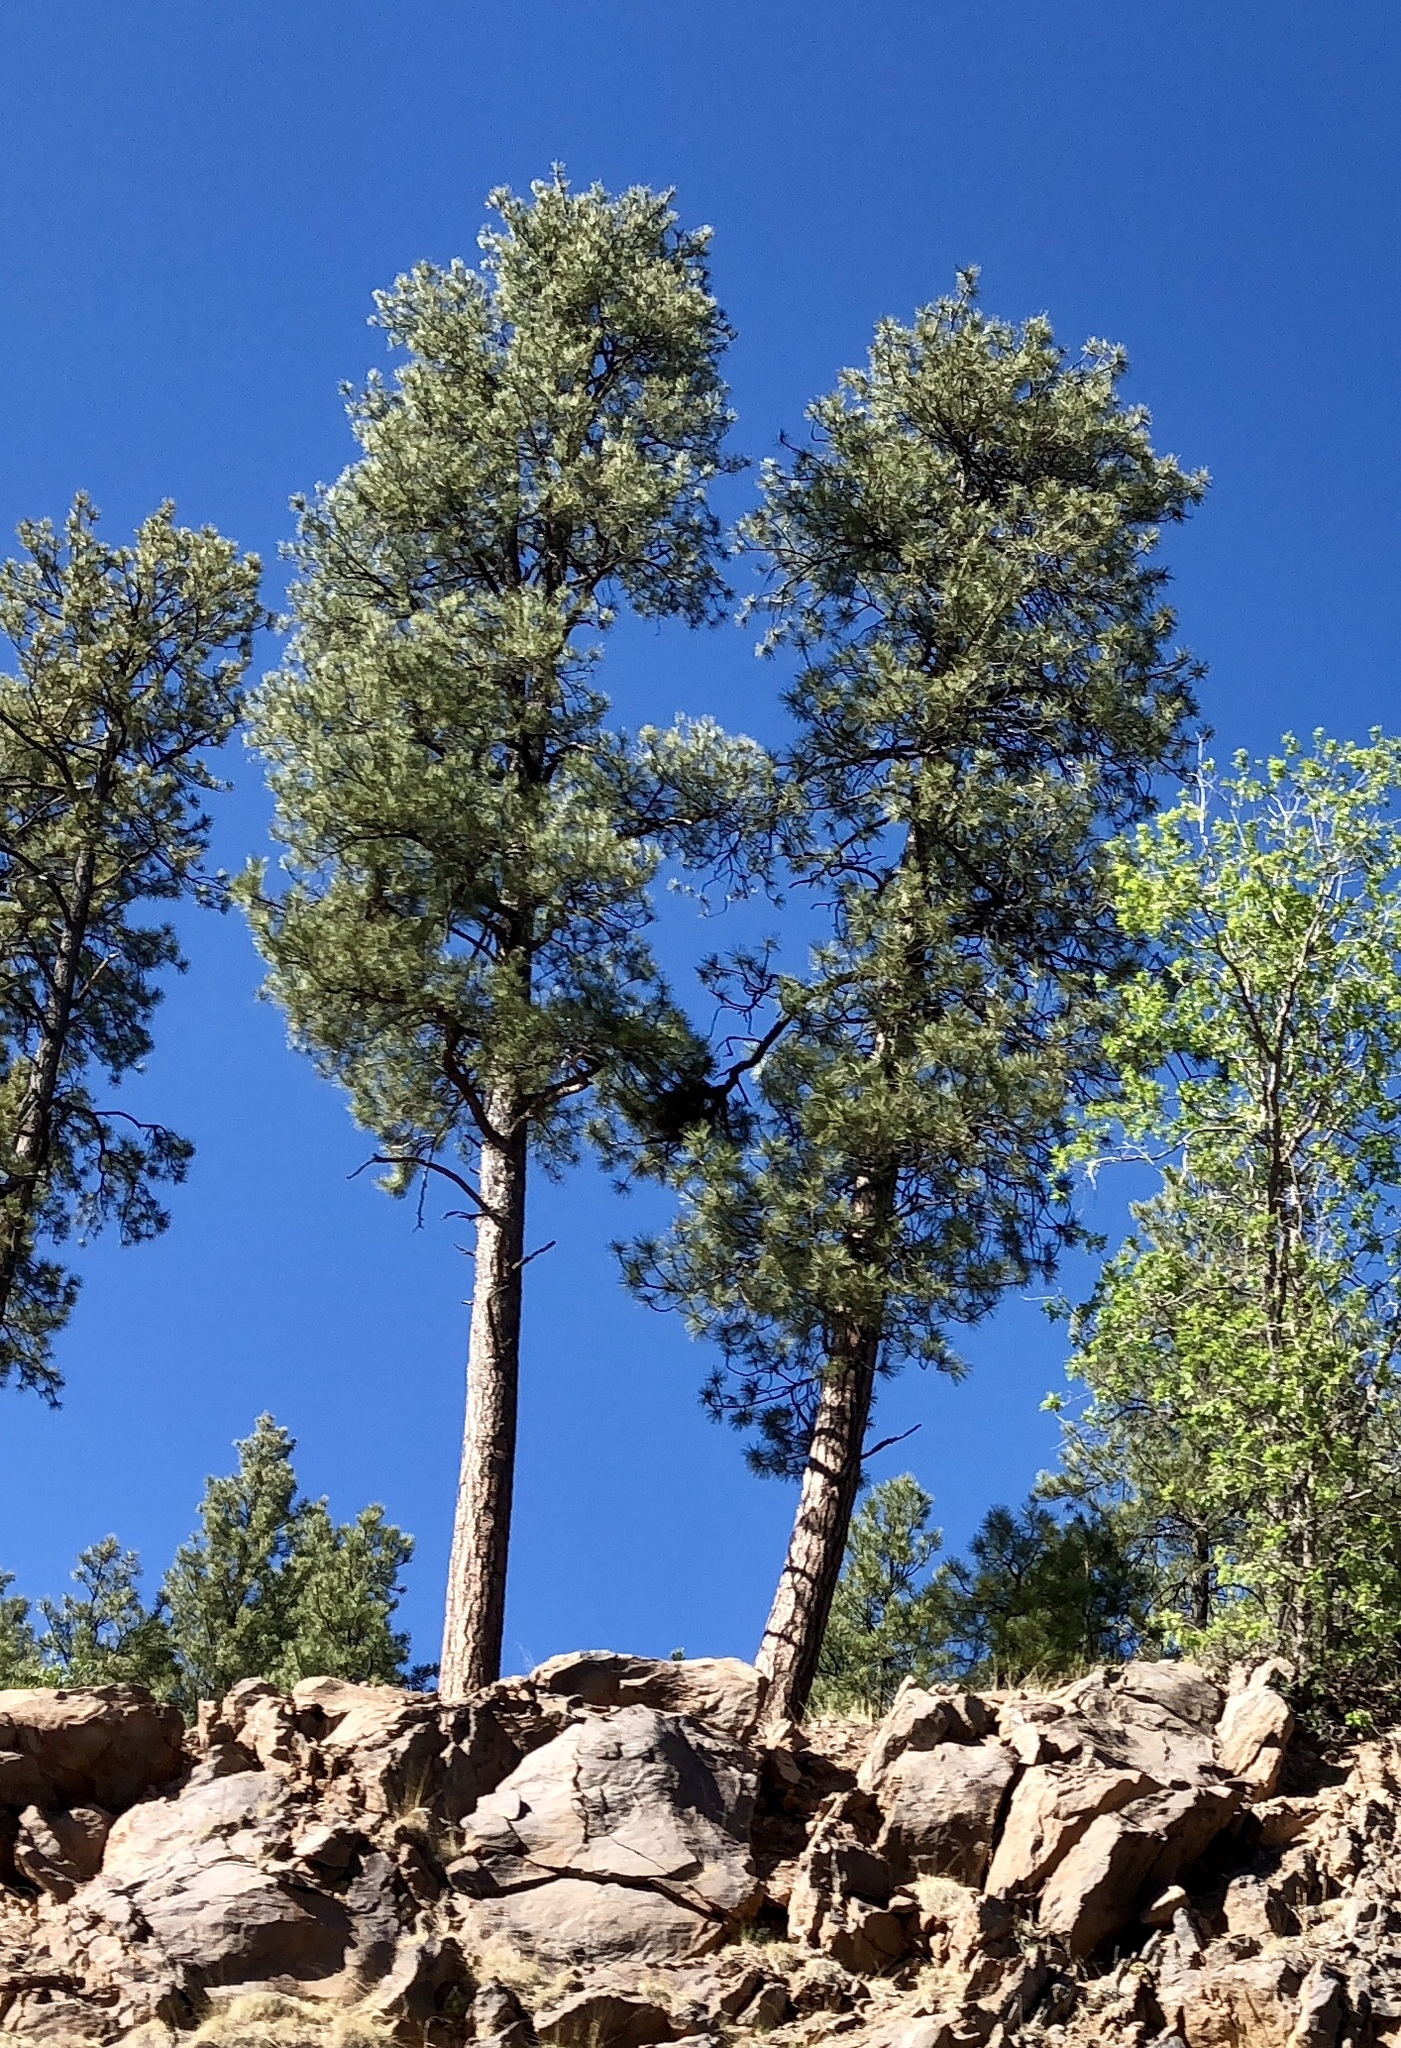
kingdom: Plantae
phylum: Tracheophyta
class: Pinopsida
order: Pinales
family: Pinaceae
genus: Pinus
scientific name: Pinus ponderosa
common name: Western yellow-pine
